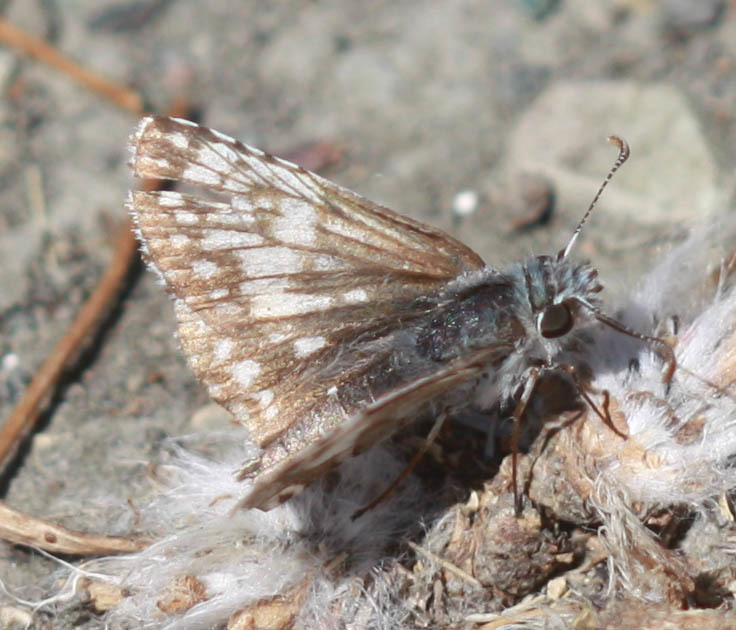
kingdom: Animalia
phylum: Arthropoda
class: Insecta
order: Lepidoptera
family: Hesperiidae
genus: Burnsius
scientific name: Burnsius communis
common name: Common checkered-skipper
